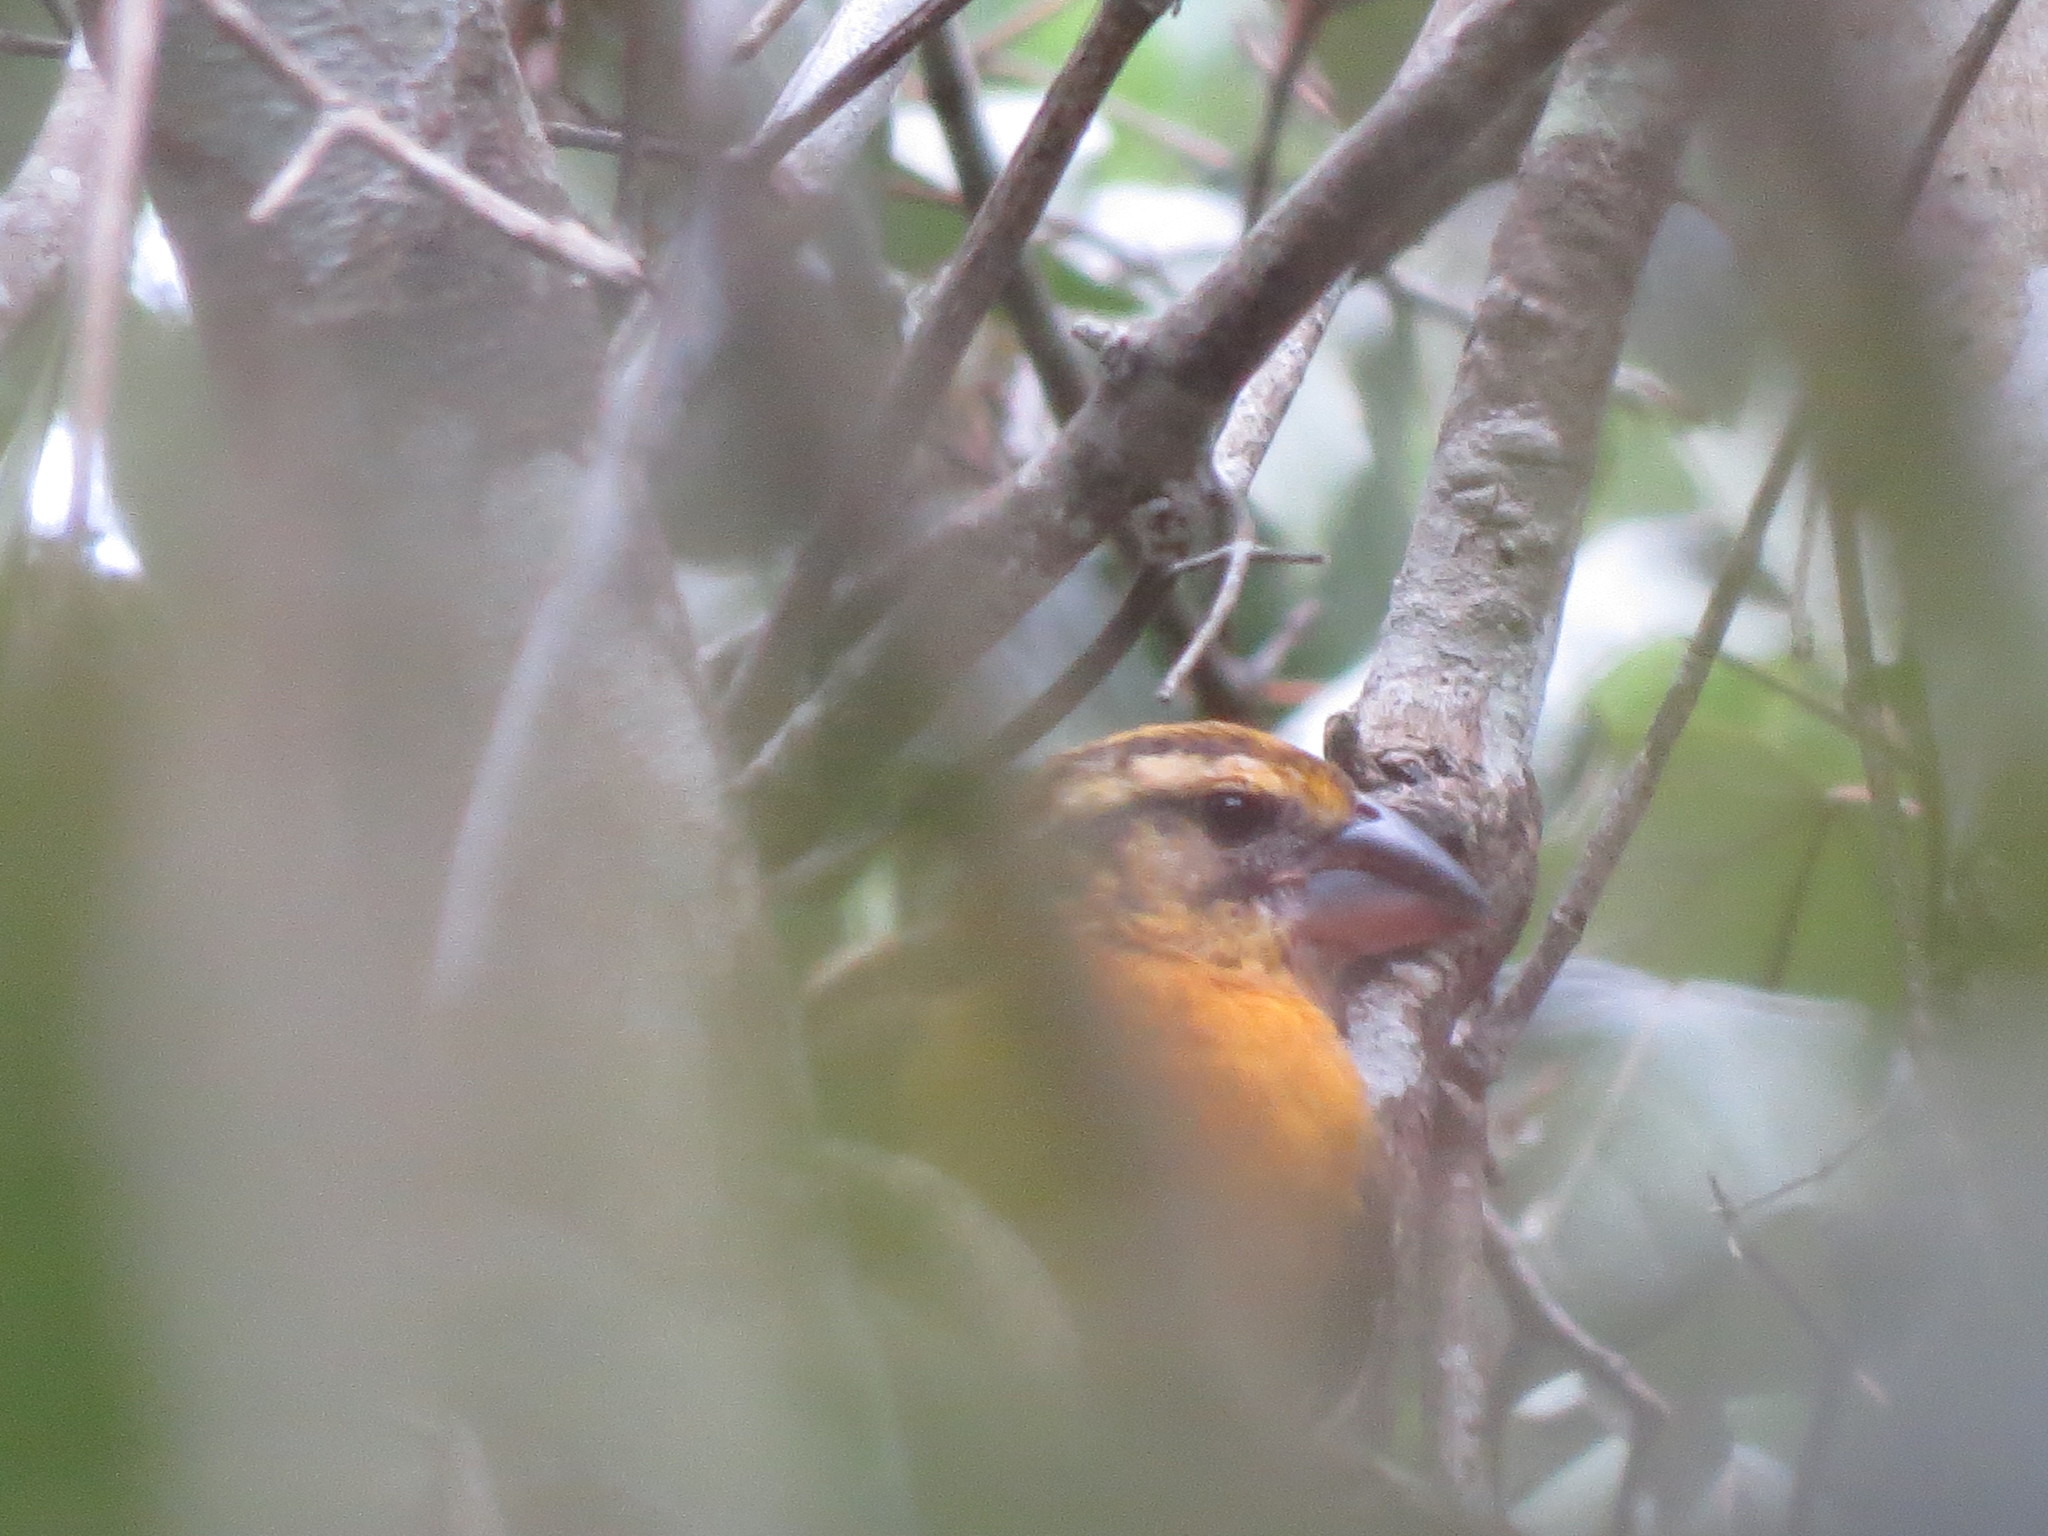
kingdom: Animalia
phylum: Chordata
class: Aves
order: Passeriformes
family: Cardinalidae
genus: Pheucticus
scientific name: Pheucticus chrysopeplus
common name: Yellow grosbeak
